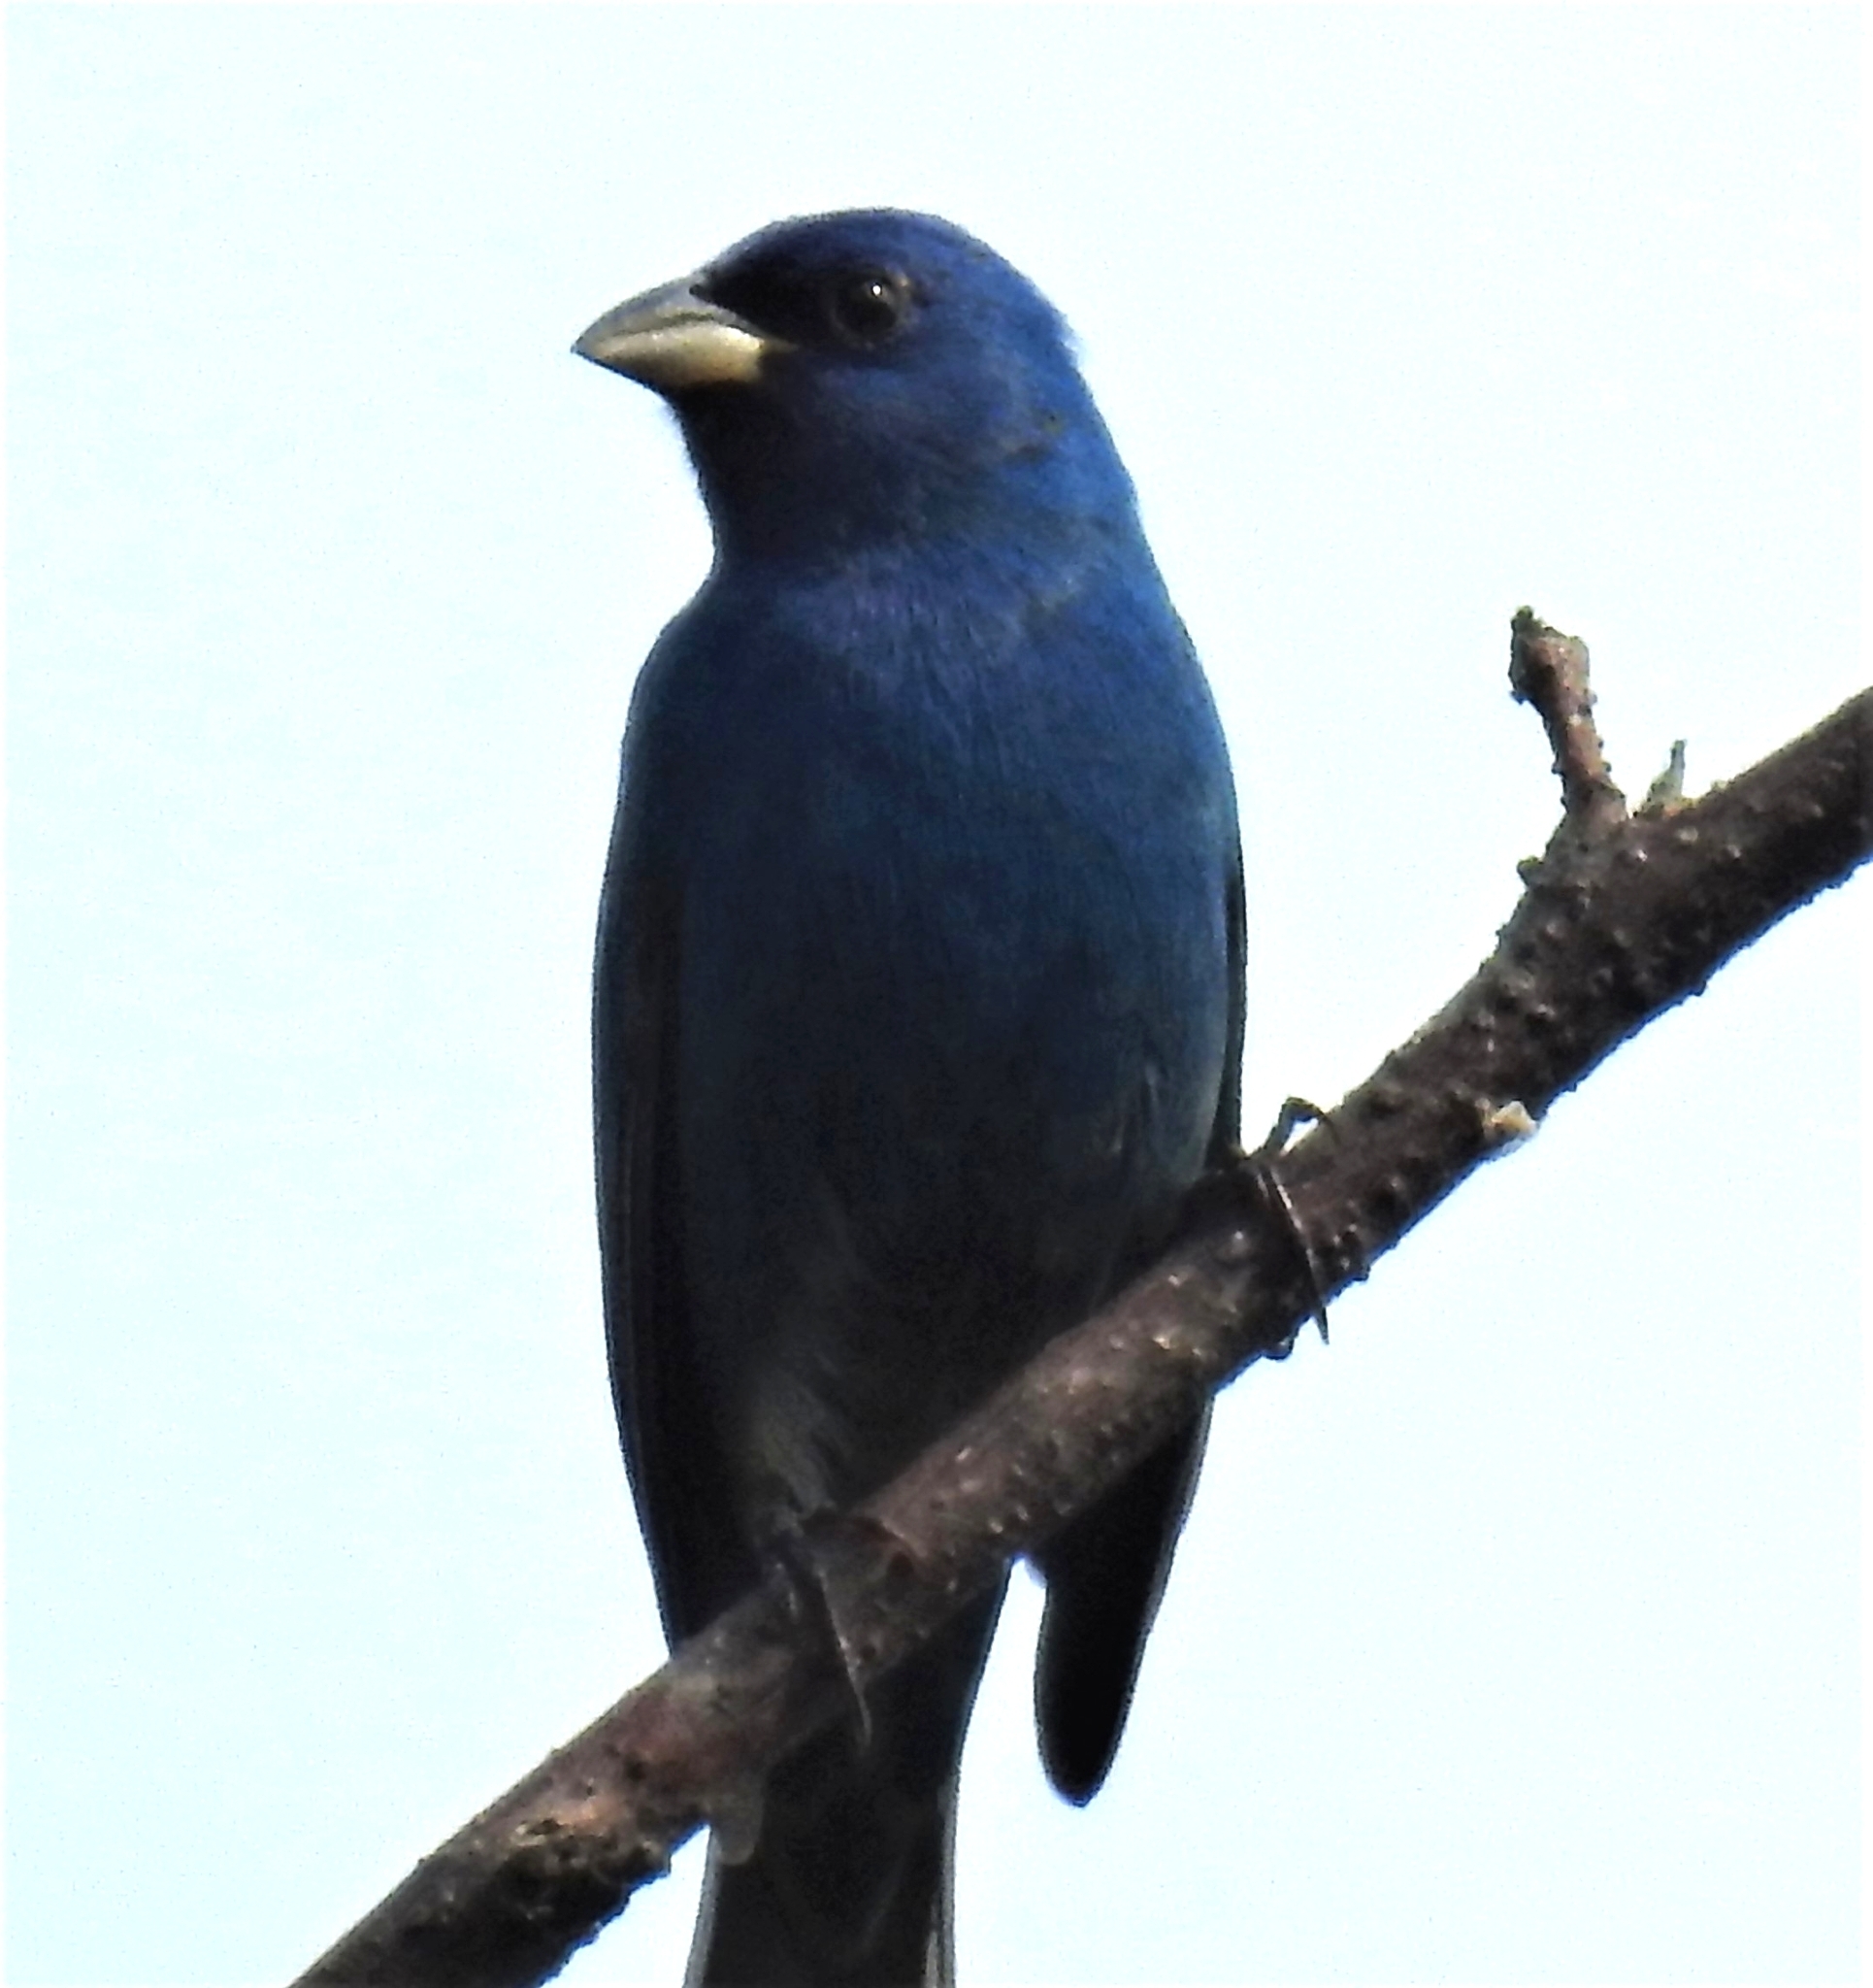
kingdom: Animalia
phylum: Chordata
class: Aves
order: Passeriformes
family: Cardinalidae
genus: Passerina
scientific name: Passerina cyanea
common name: Indigo bunting
